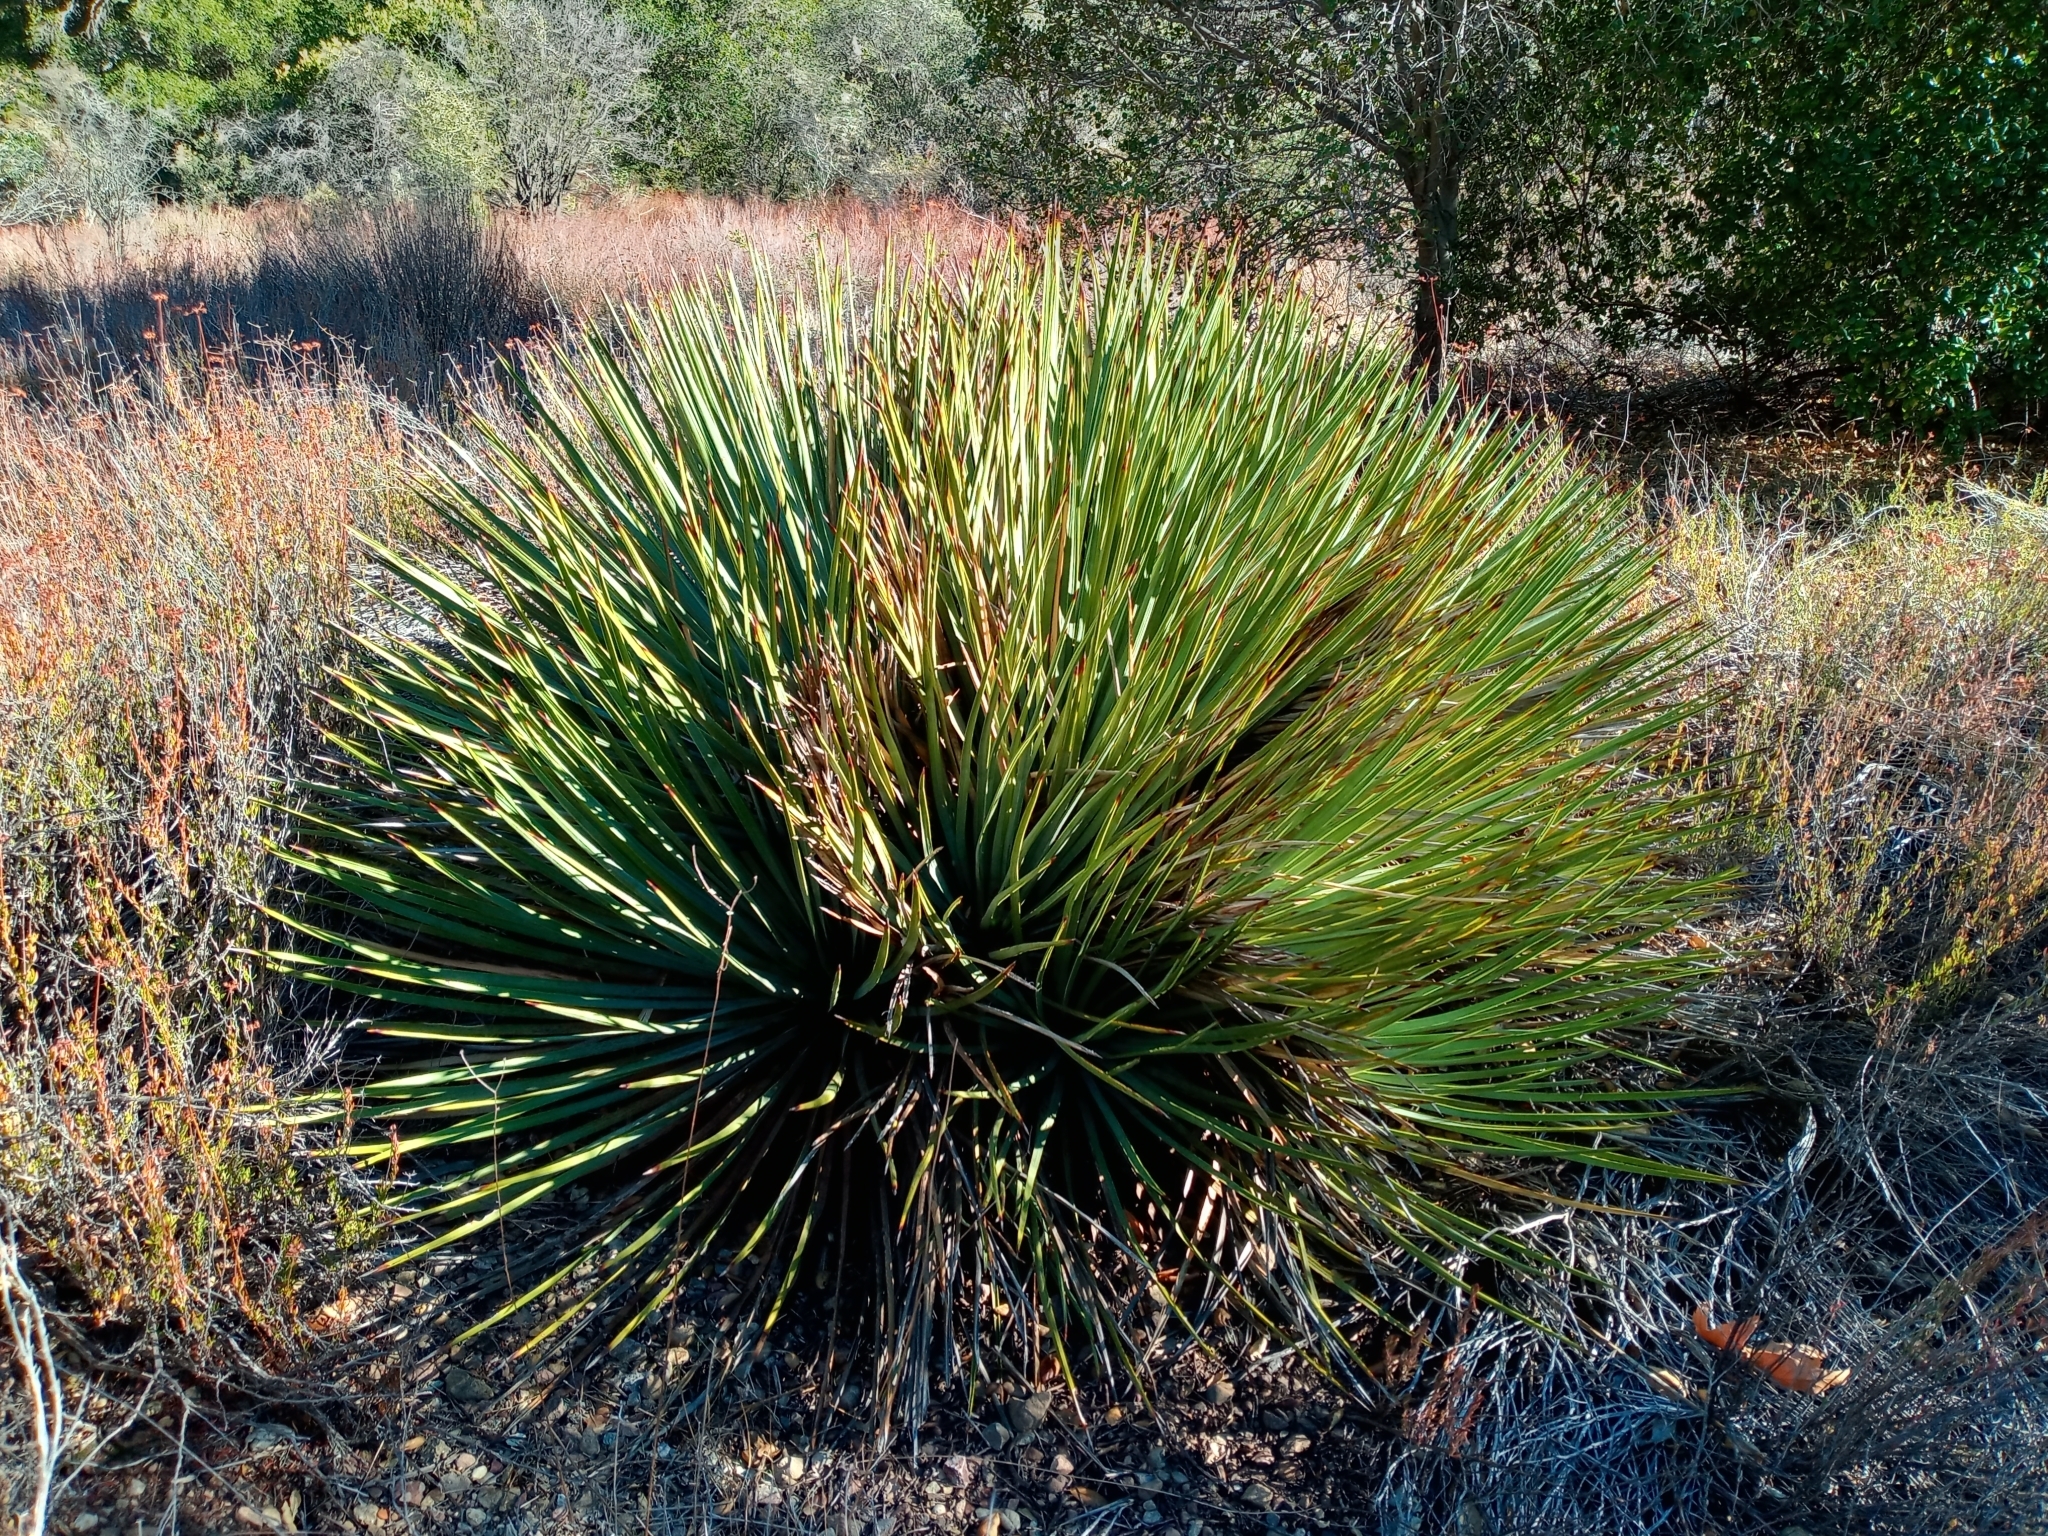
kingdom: Plantae
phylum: Tracheophyta
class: Liliopsida
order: Asparagales
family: Asparagaceae
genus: Hesperoyucca
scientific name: Hesperoyucca whipplei
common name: Our lord's-candle
